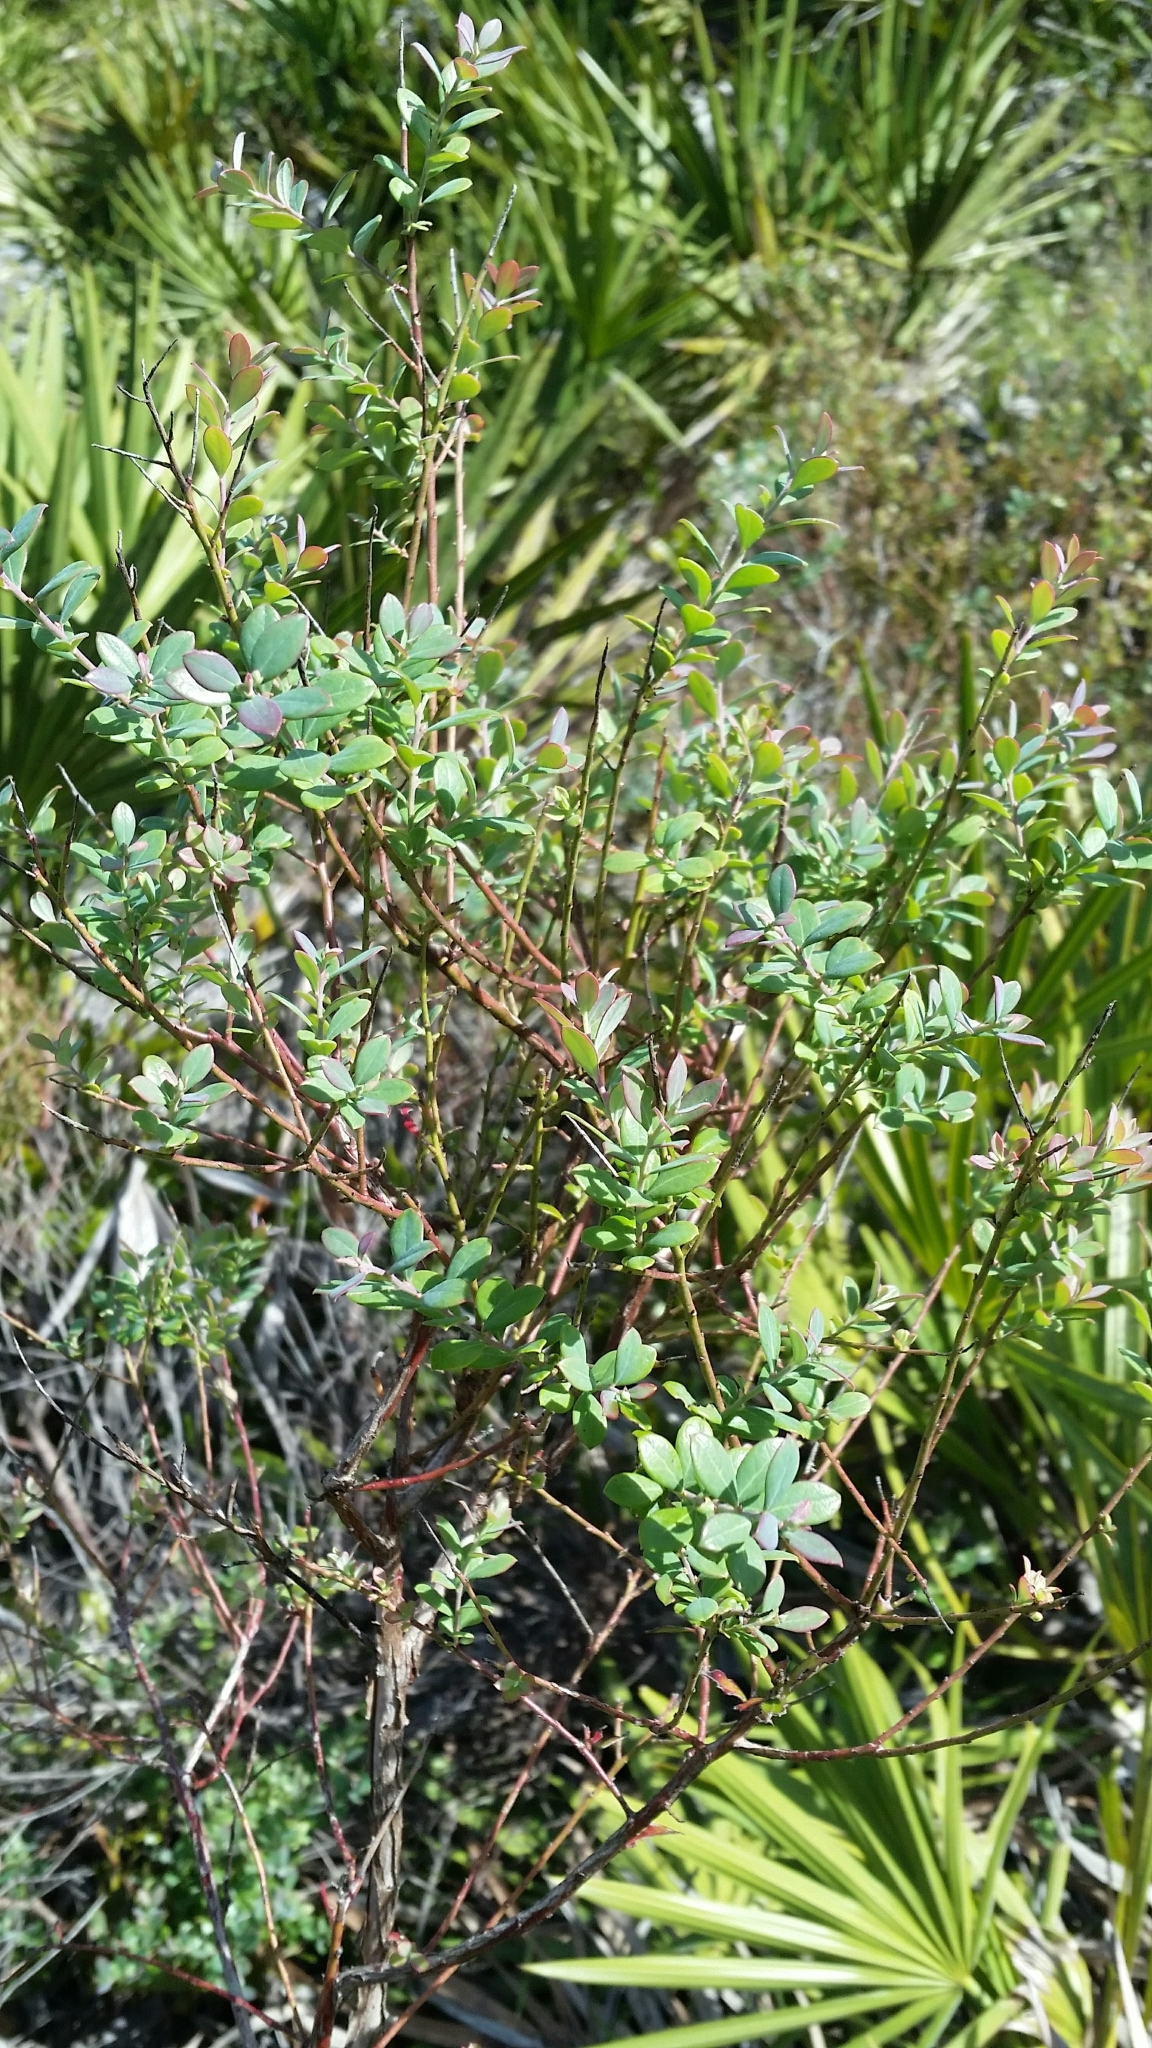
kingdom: Plantae
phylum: Tracheophyta
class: Magnoliopsida
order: Ericales
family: Ericaceae
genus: Vaccinium
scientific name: Vaccinium darrowii
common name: Darrow's blueberry
